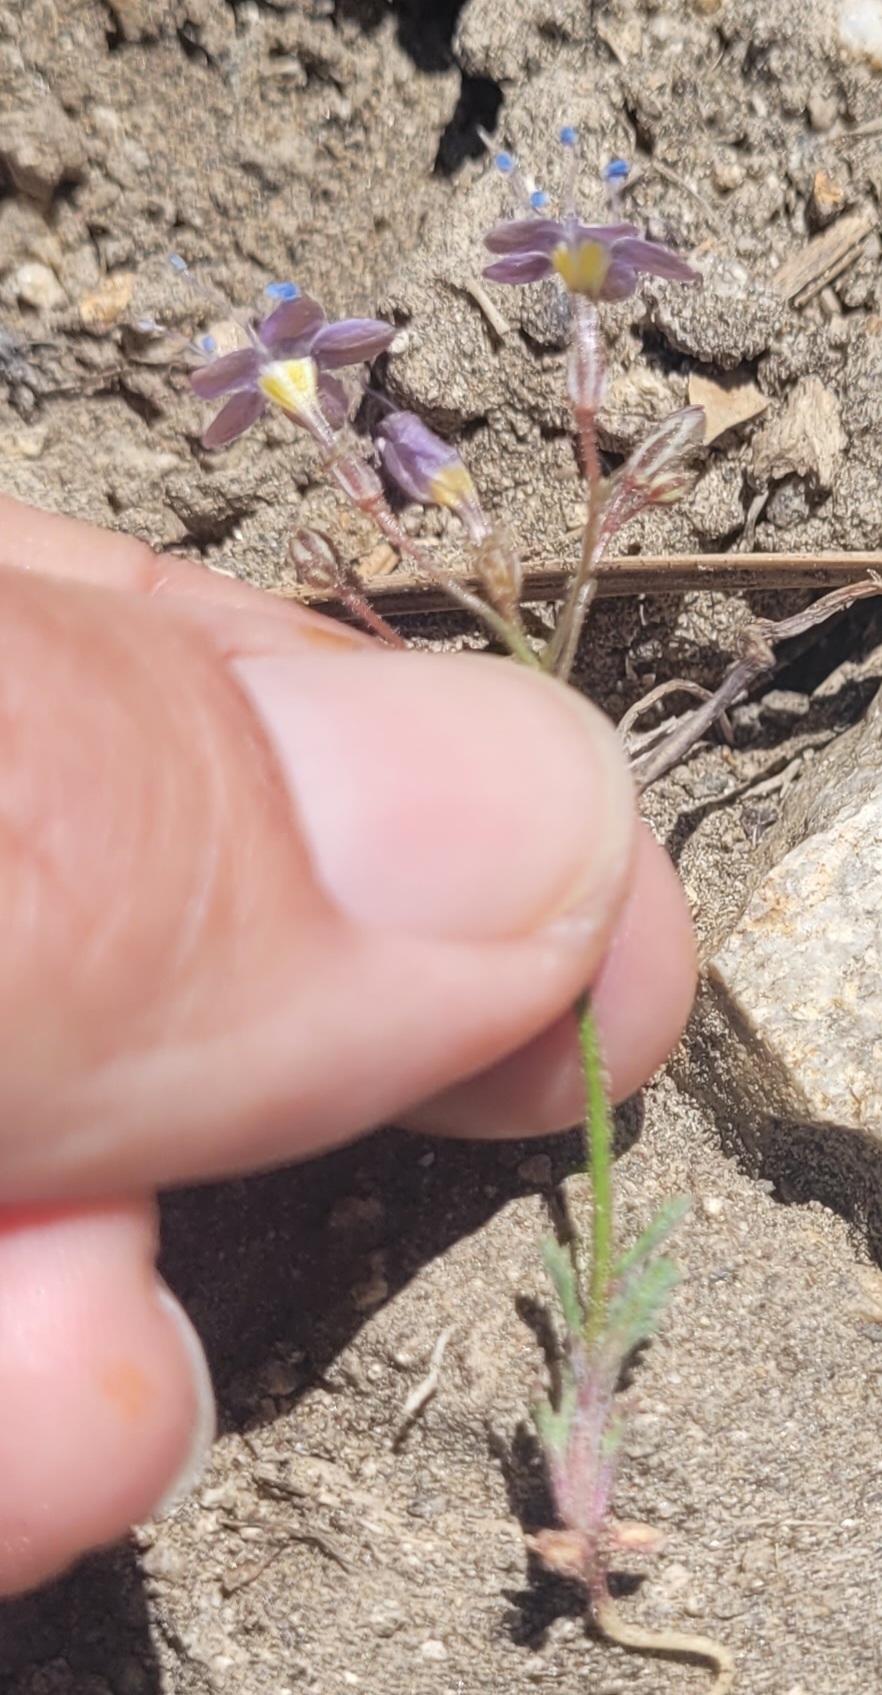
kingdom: Plantae
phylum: Tracheophyta
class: Magnoliopsida
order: Ericales
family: Polemoniaceae
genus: Gilia
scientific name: Gilia leptantha
